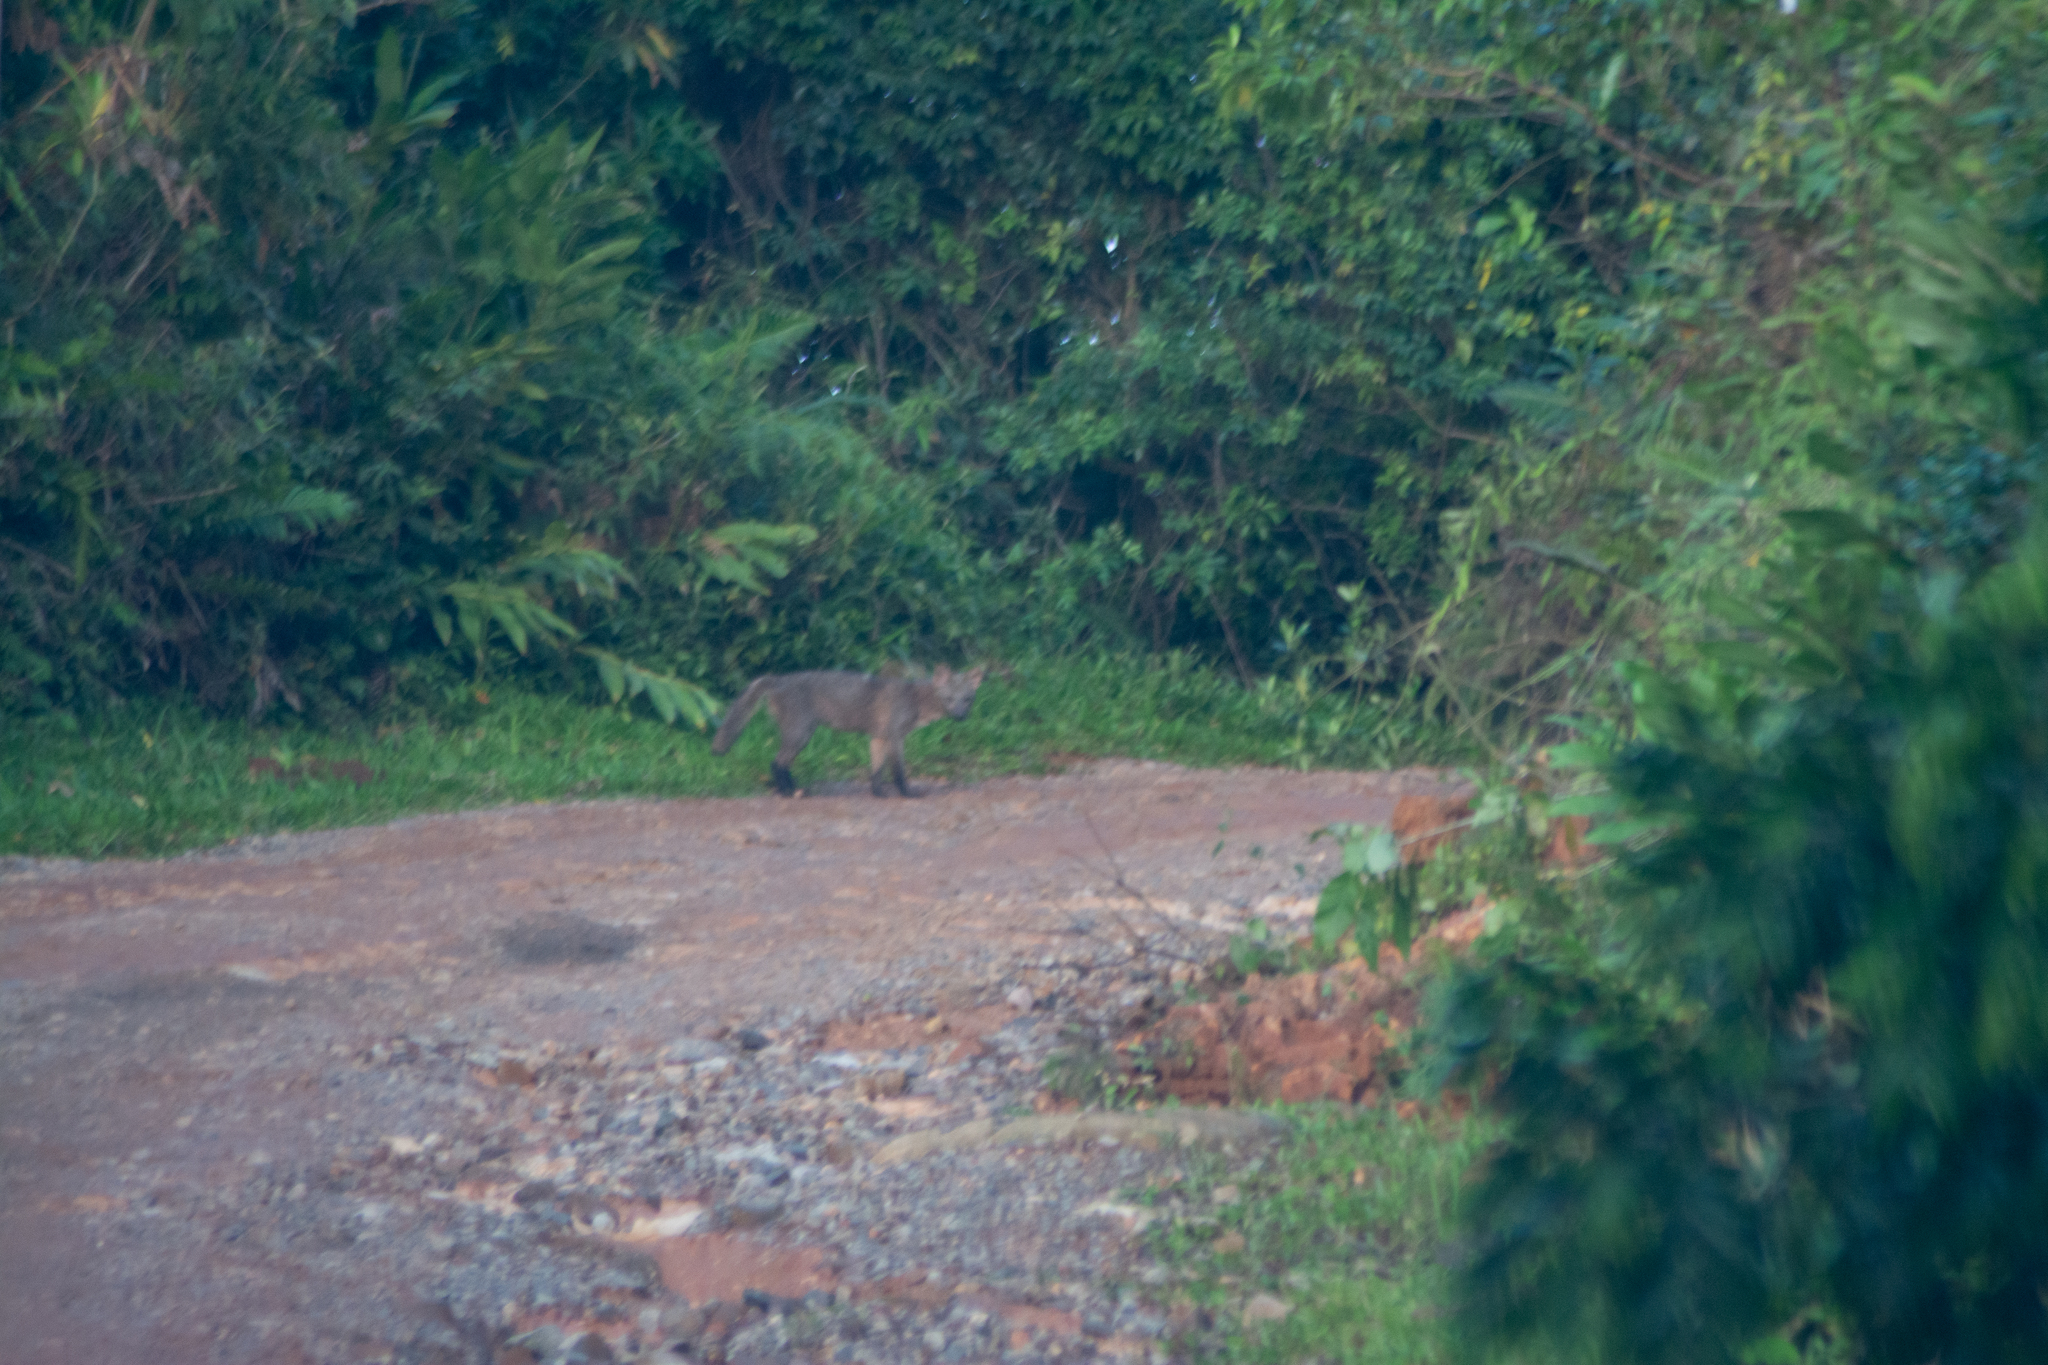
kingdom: Animalia
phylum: Chordata
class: Mammalia
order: Carnivora
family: Canidae
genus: Cerdocyon
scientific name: Cerdocyon thous
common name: Crab-eating fox
